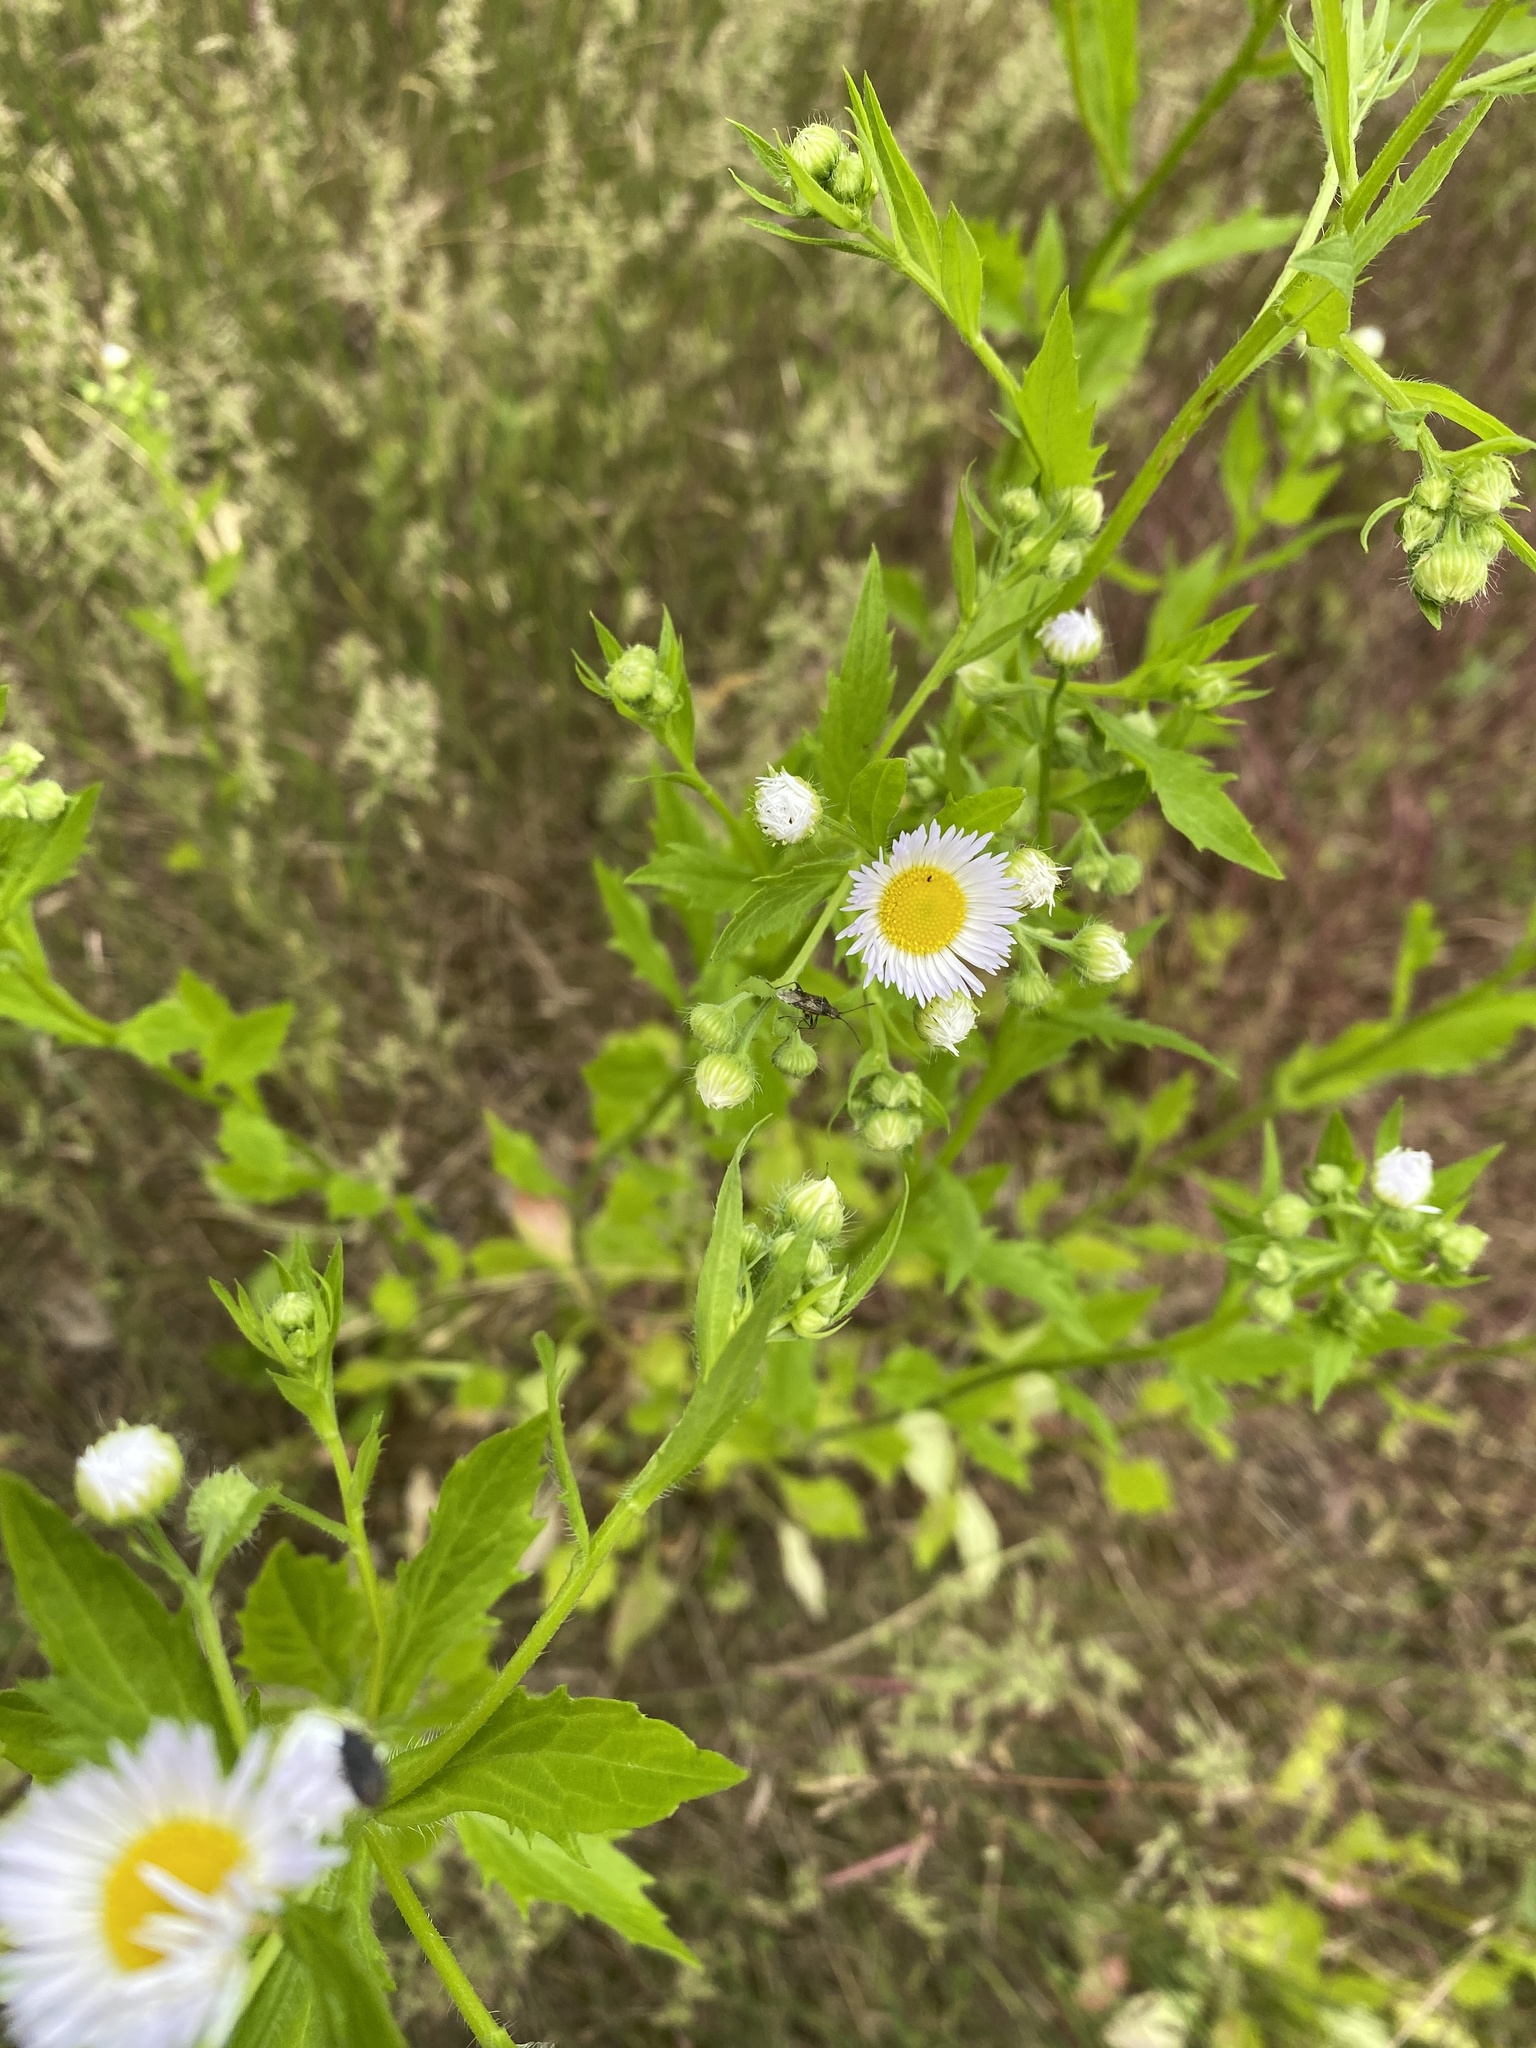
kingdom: Plantae
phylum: Tracheophyta
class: Magnoliopsida
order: Asterales
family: Asteraceae
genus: Erigeron
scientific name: Erigeron annuus
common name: Tall fleabane
